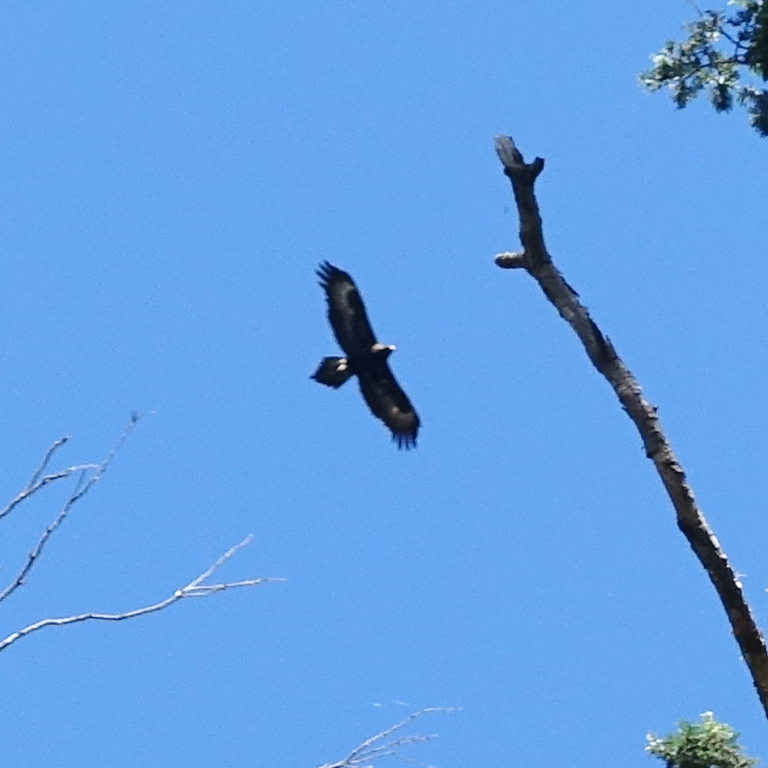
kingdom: Animalia
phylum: Chordata
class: Aves
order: Accipitriformes
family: Accipitridae
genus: Aquila
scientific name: Aquila audax
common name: Wedge-tailed eagle
